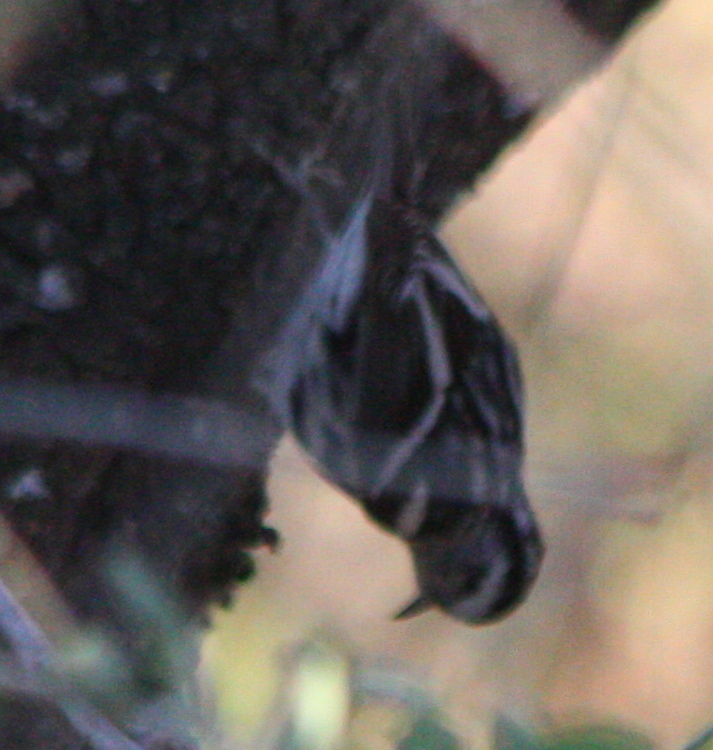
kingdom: Animalia
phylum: Chordata
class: Aves
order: Passeriformes
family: Parulidae
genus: Mniotilta
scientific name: Mniotilta varia
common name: Black-and-white warbler
